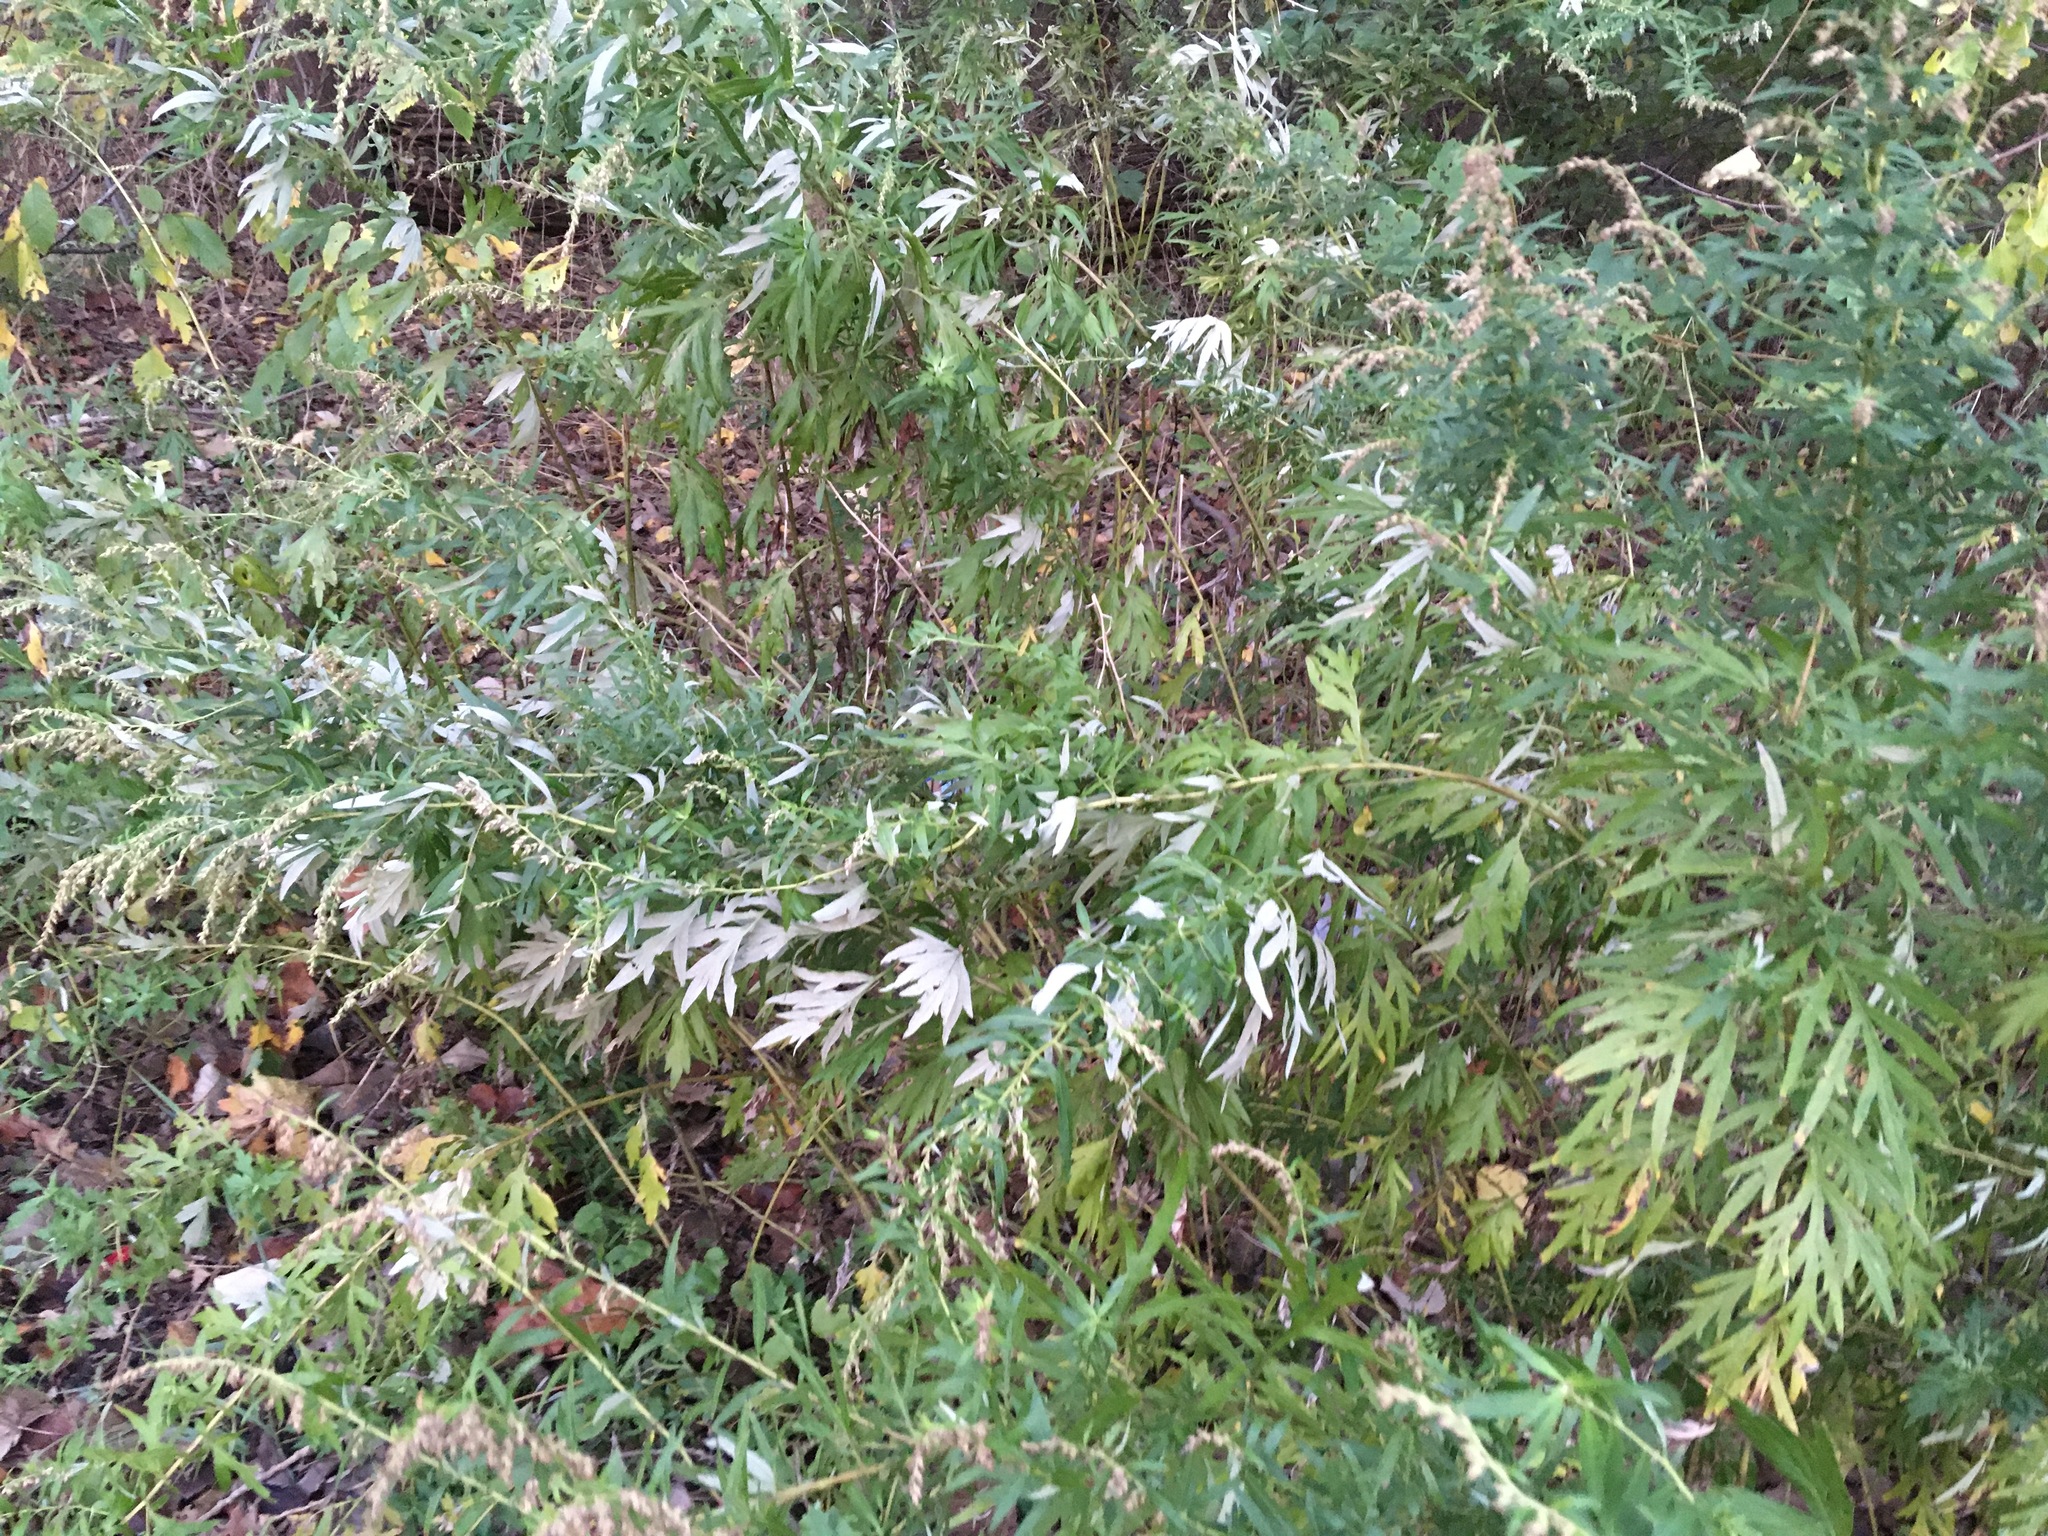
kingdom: Plantae
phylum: Tracheophyta
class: Magnoliopsida
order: Asterales
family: Asteraceae
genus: Artemisia
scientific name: Artemisia vulgaris
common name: Mugwort
